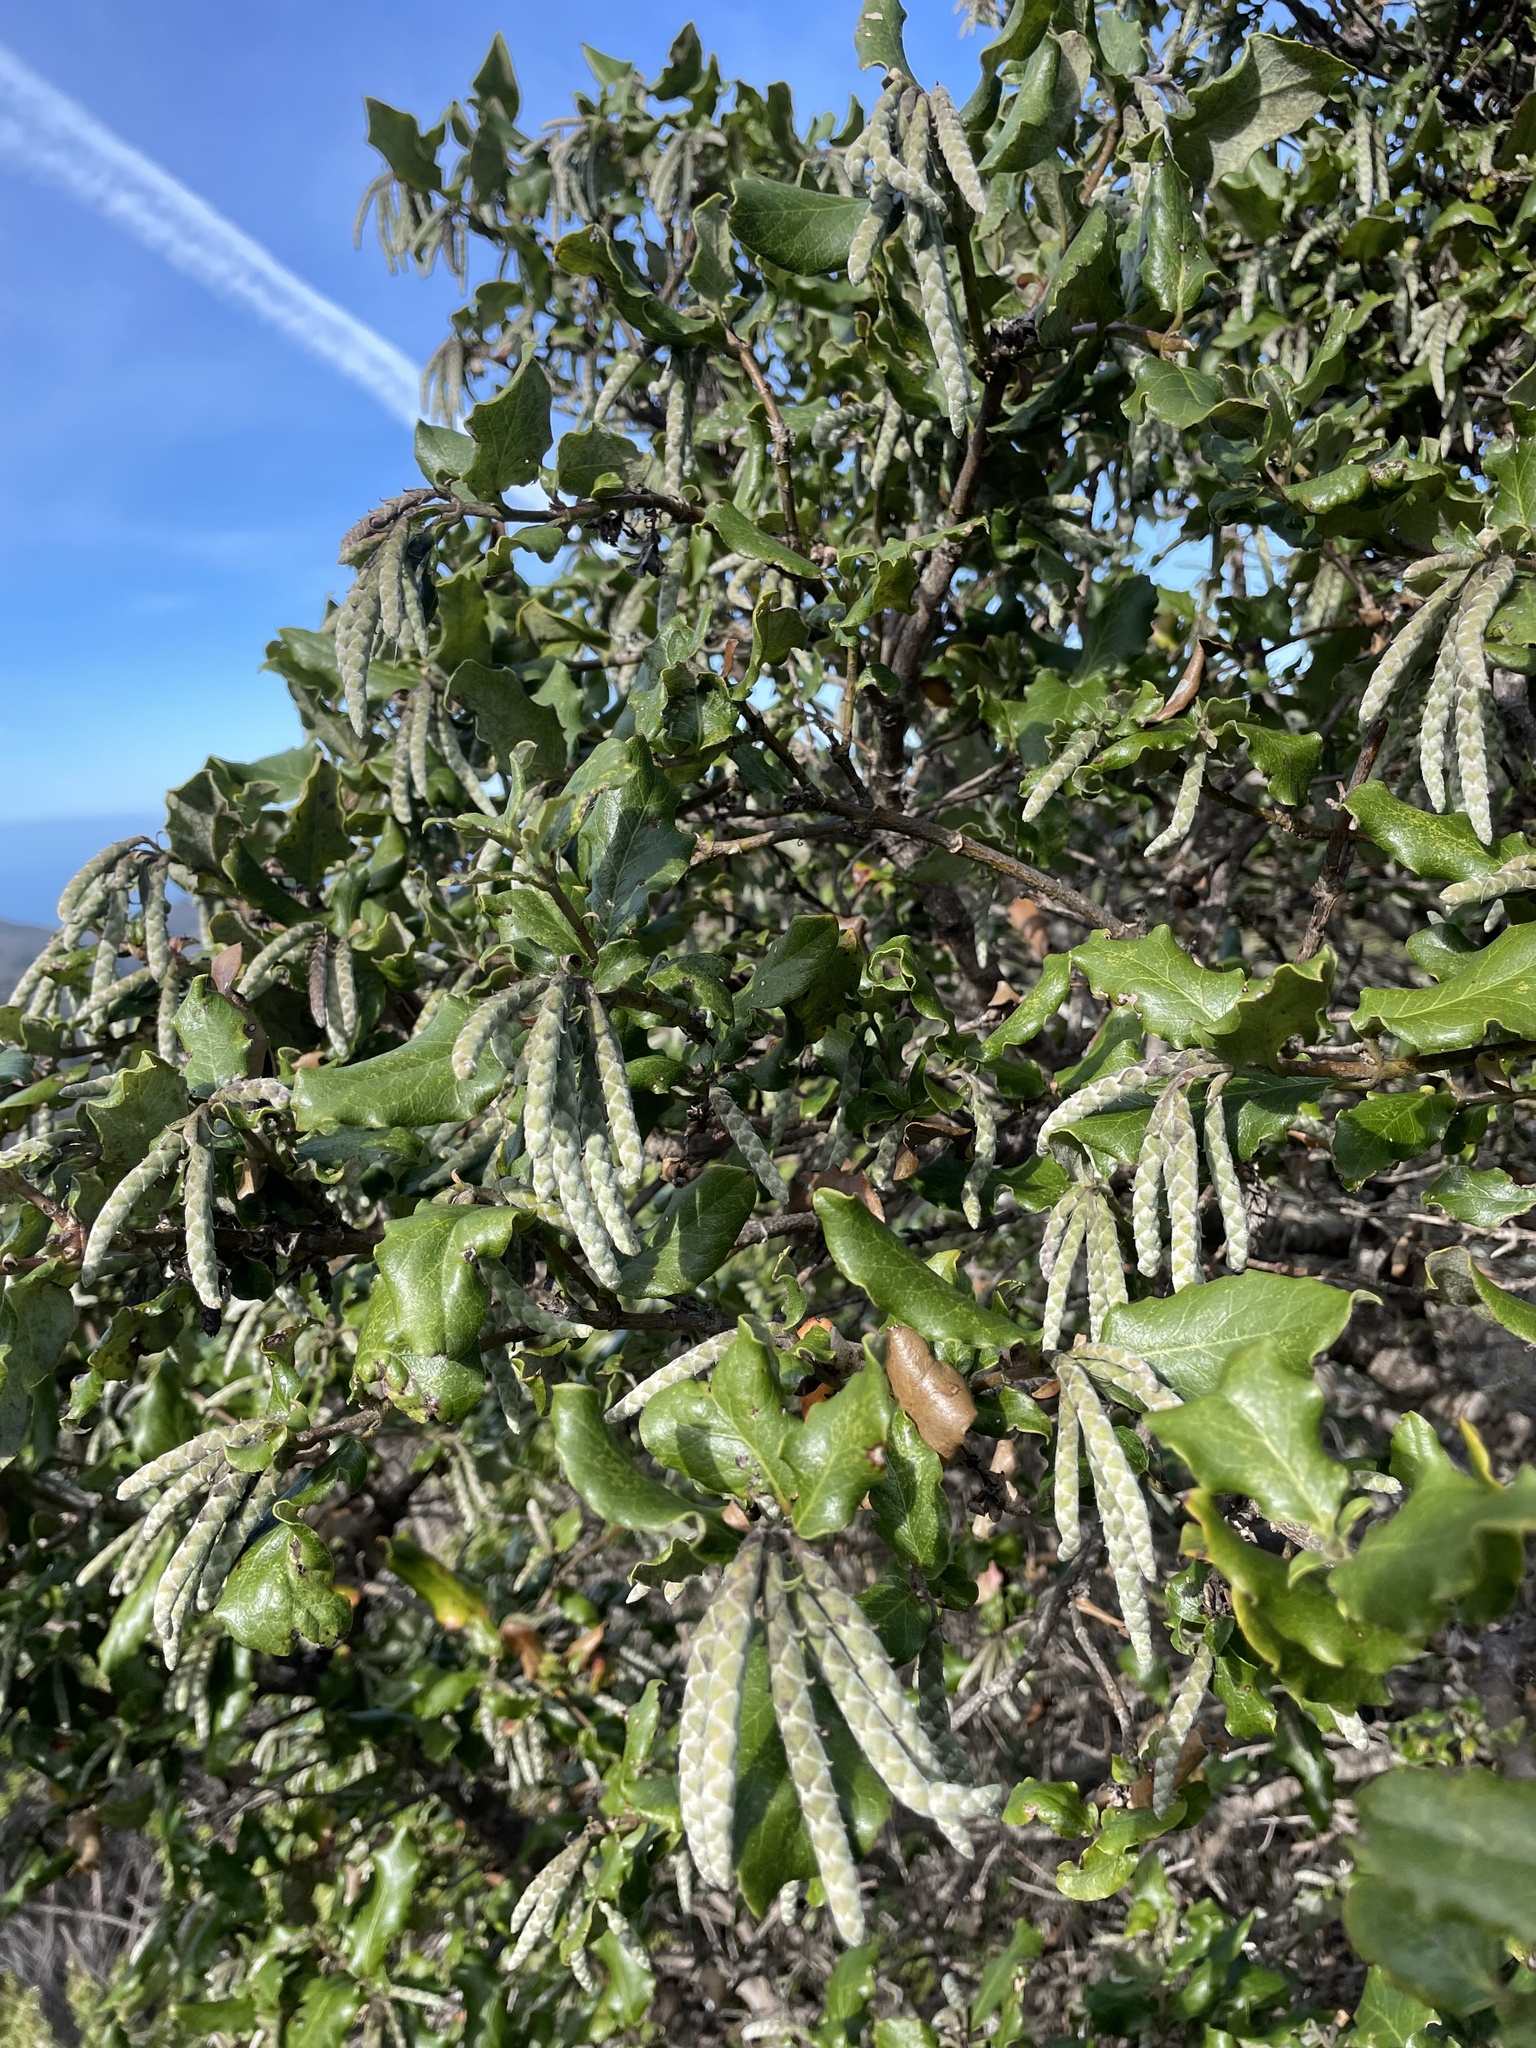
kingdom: Plantae
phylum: Tracheophyta
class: Magnoliopsida
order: Garryales
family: Garryaceae
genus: Garrya
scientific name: Garrya elliptica
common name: Silk-tassel
